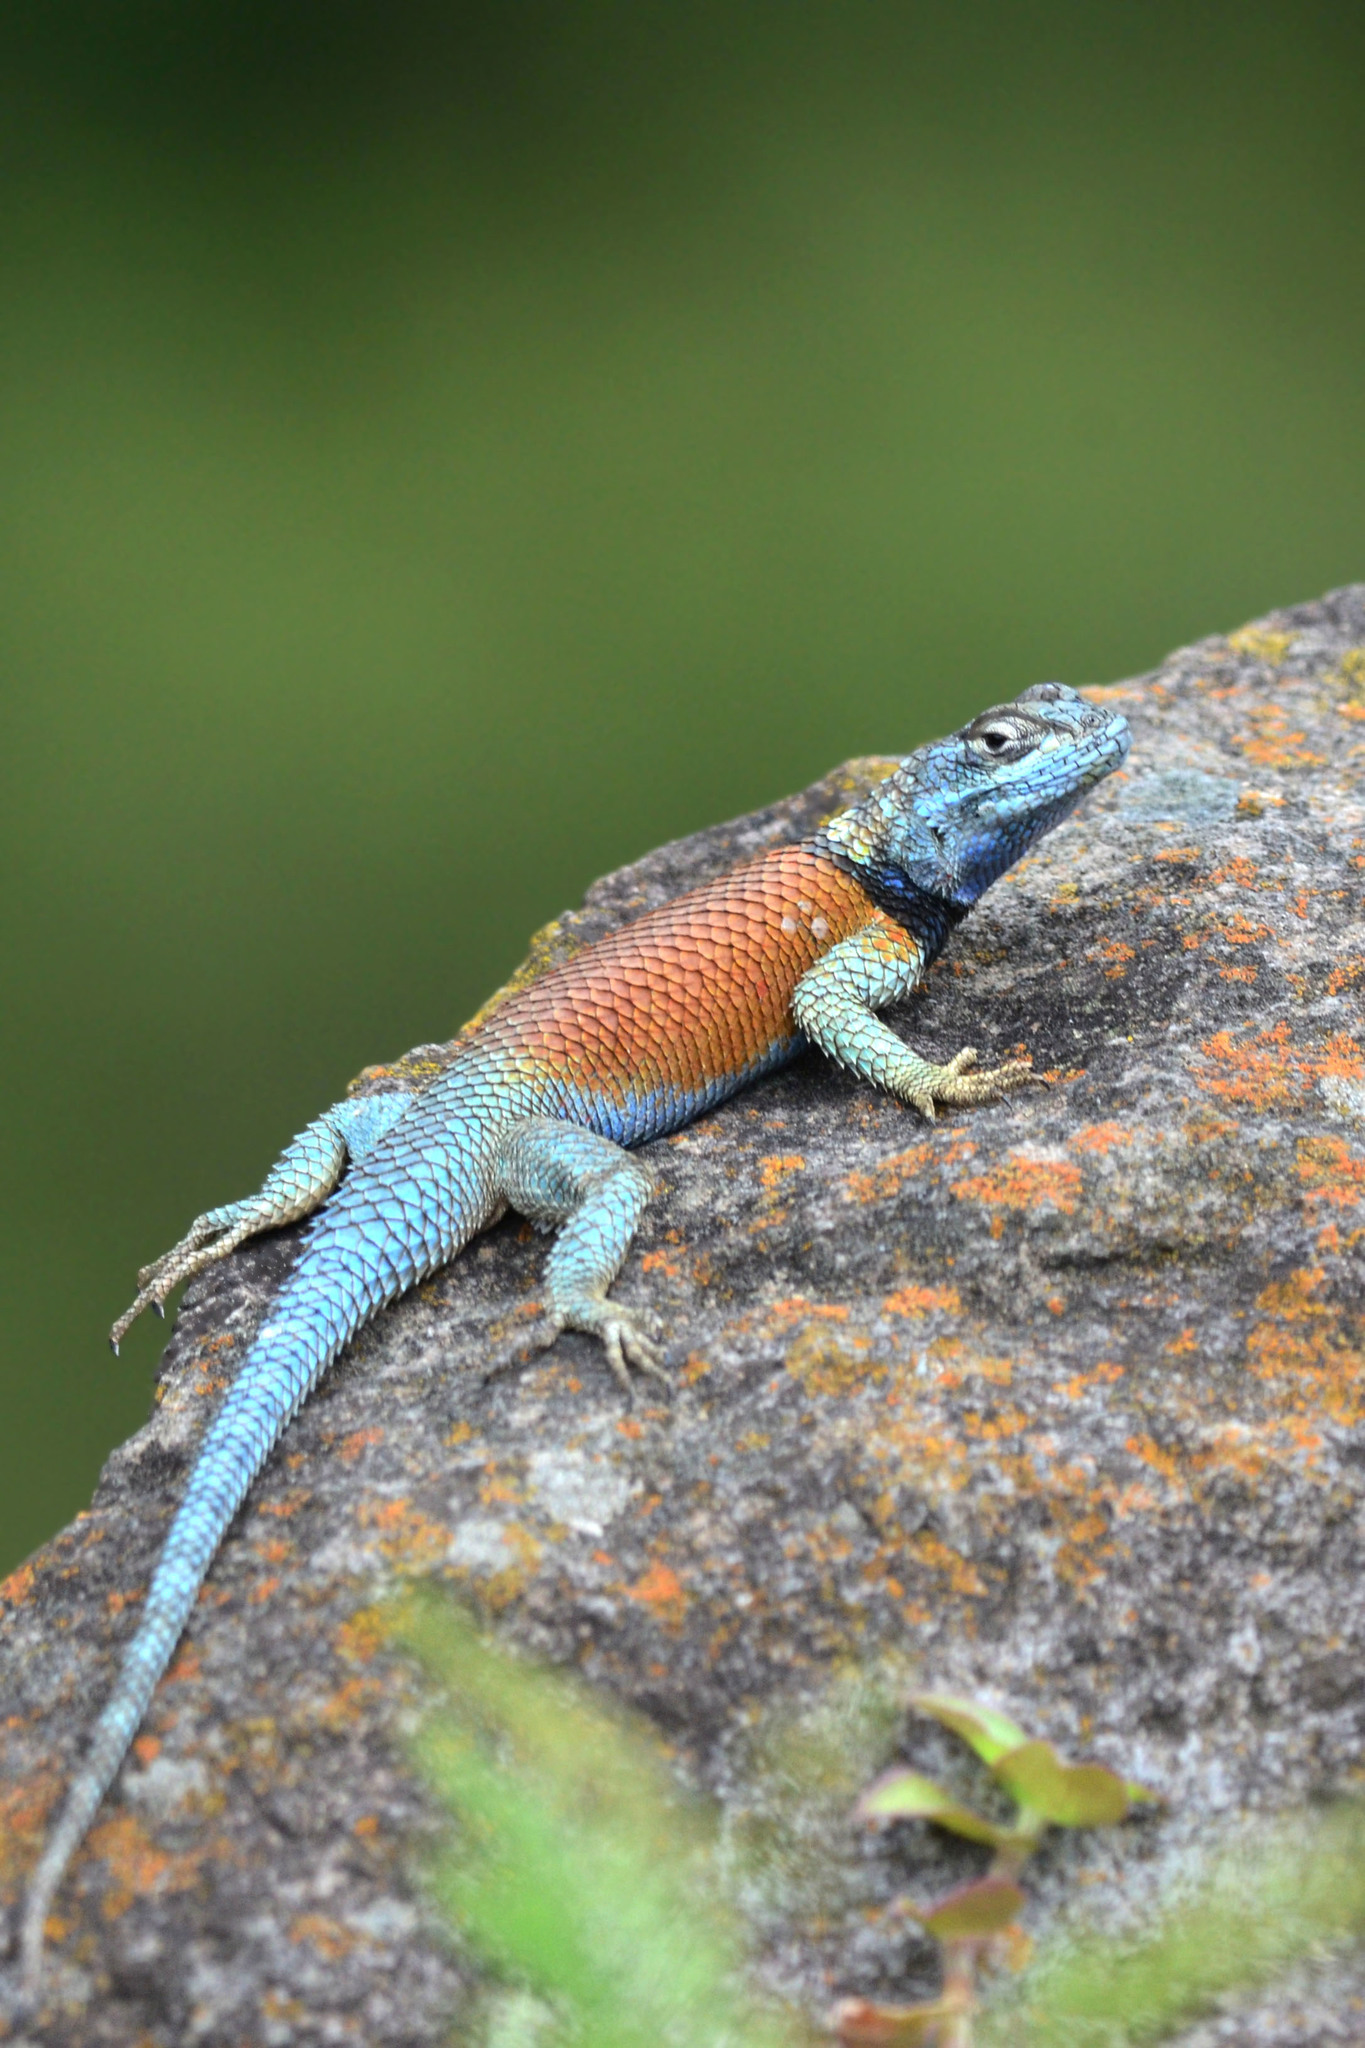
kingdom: Animalia
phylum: Chordata
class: Squamata
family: Phrynosomatidae
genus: Sceloporus
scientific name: Sceloporus minor
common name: Minor lizard
